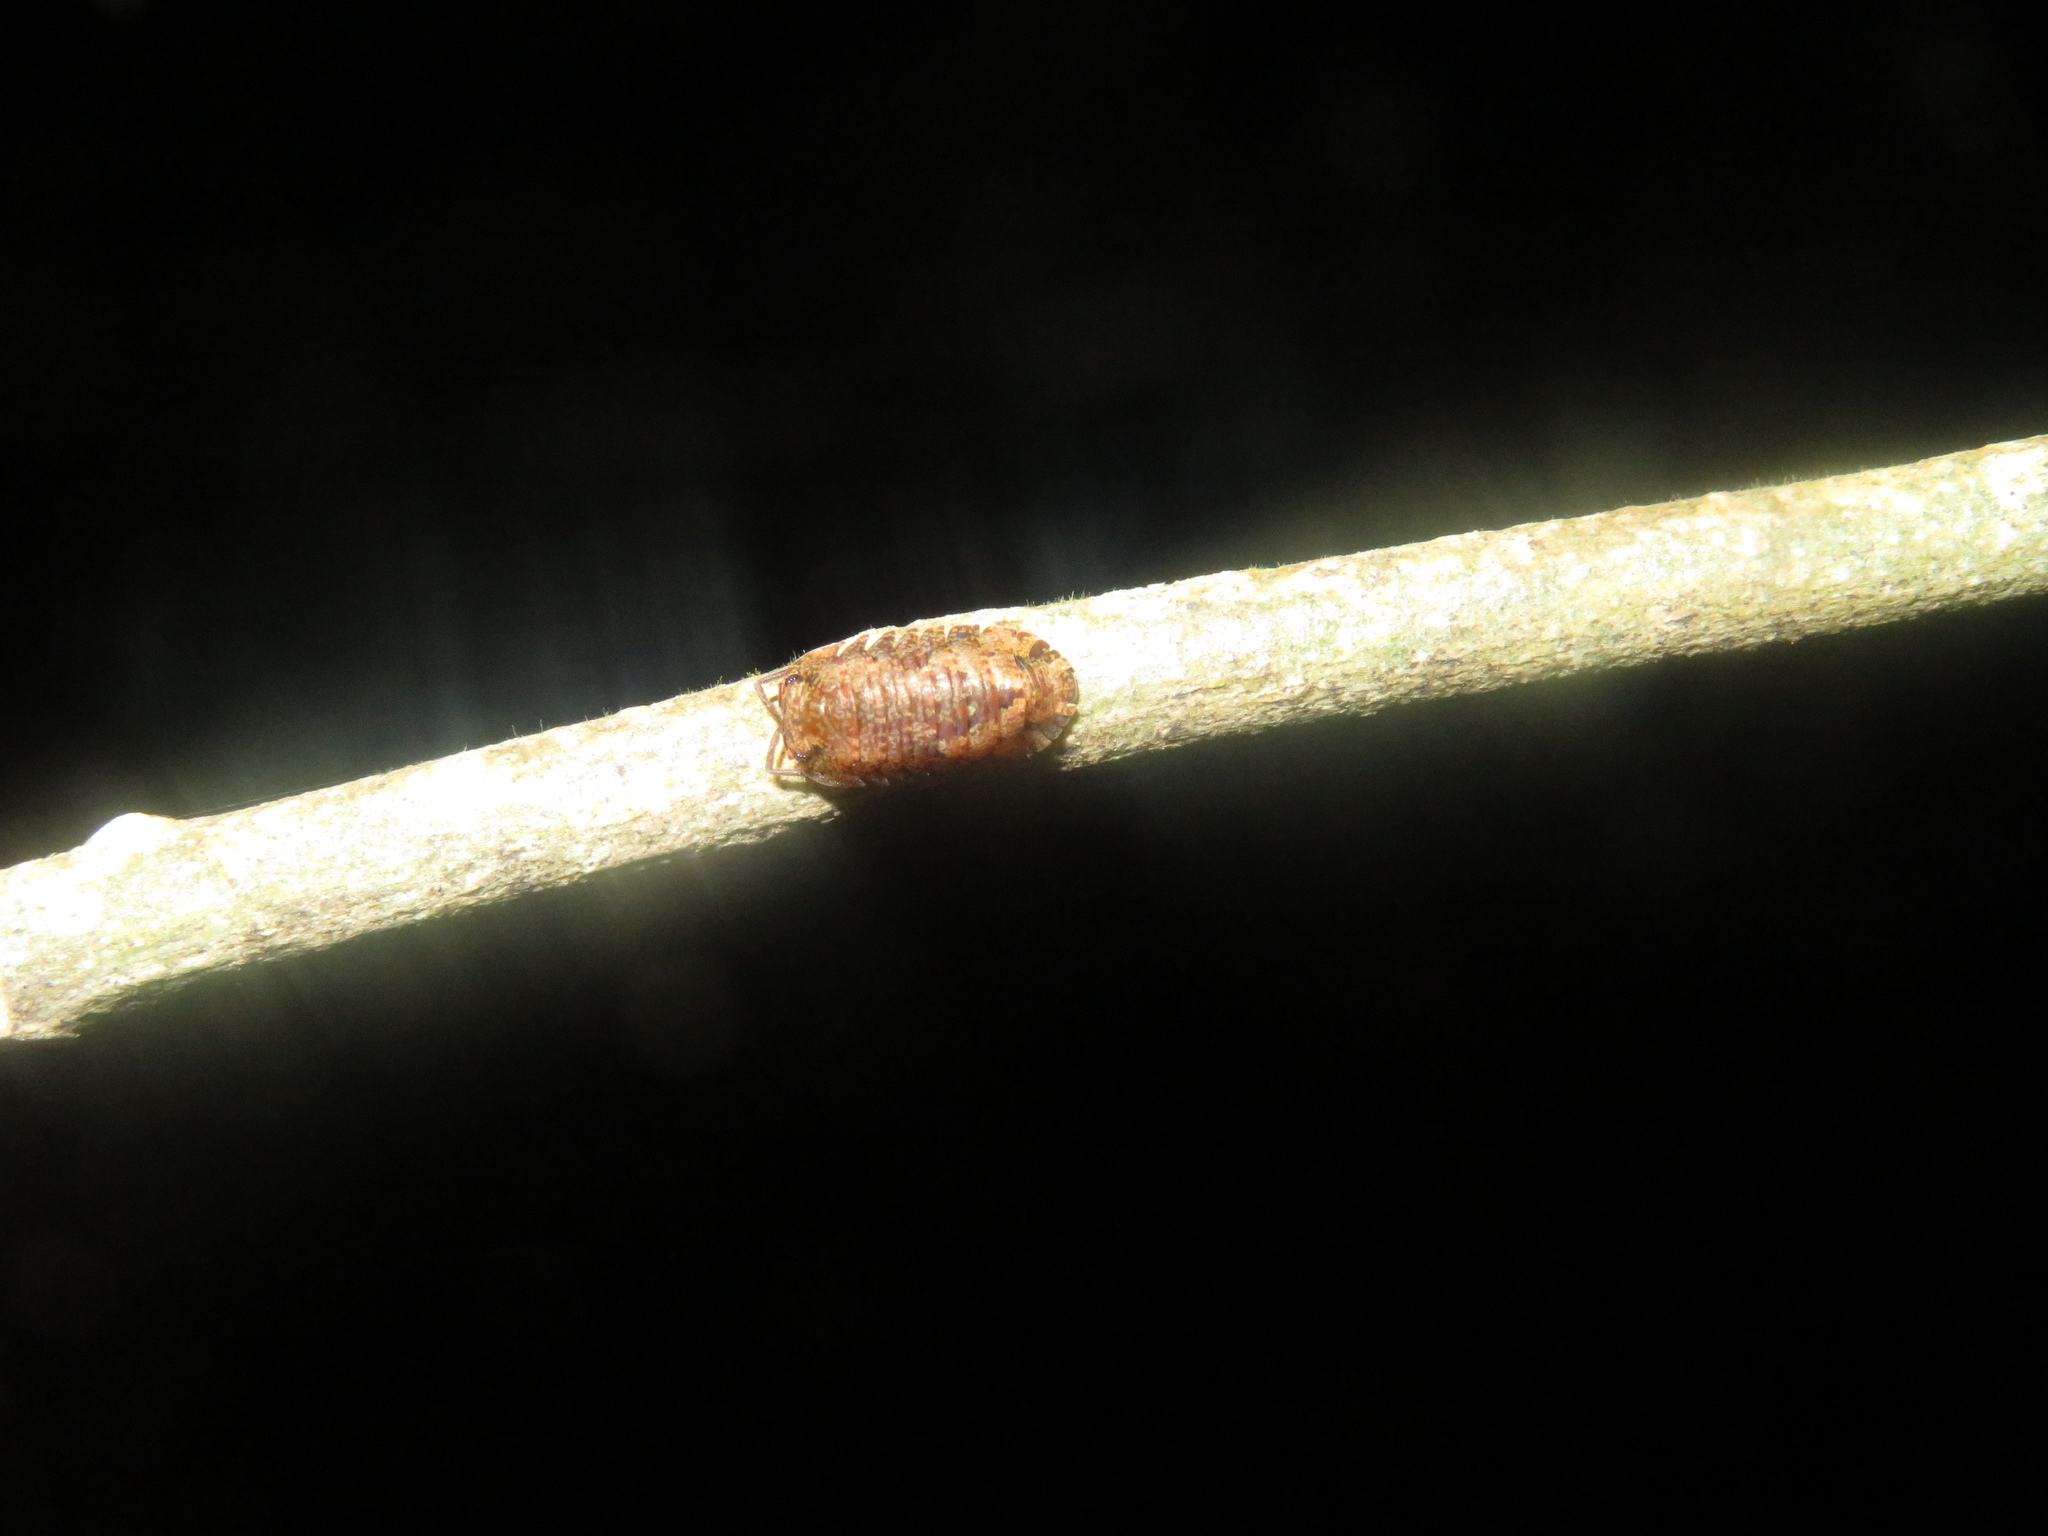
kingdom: Animalia
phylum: Arthropoda
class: Malacostraca
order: Isopoda
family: Armadillidae
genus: Cubaris
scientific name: Cubaris tarangensis
